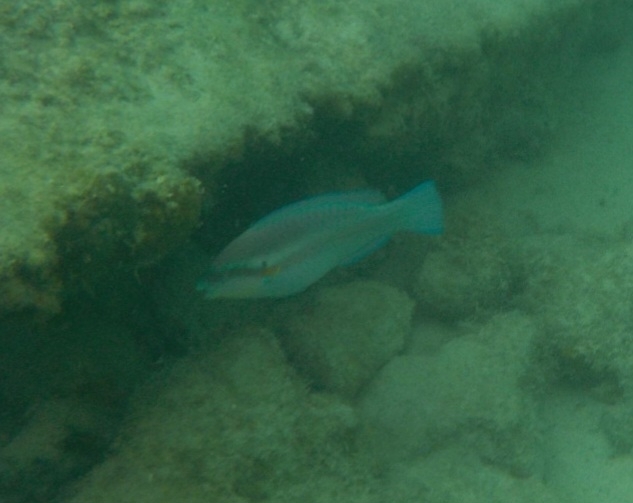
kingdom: Animalia
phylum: Chordata
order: Perciformes
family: Scaridae
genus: Scarus
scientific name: Scarus iseri
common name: Striped parrotfish
